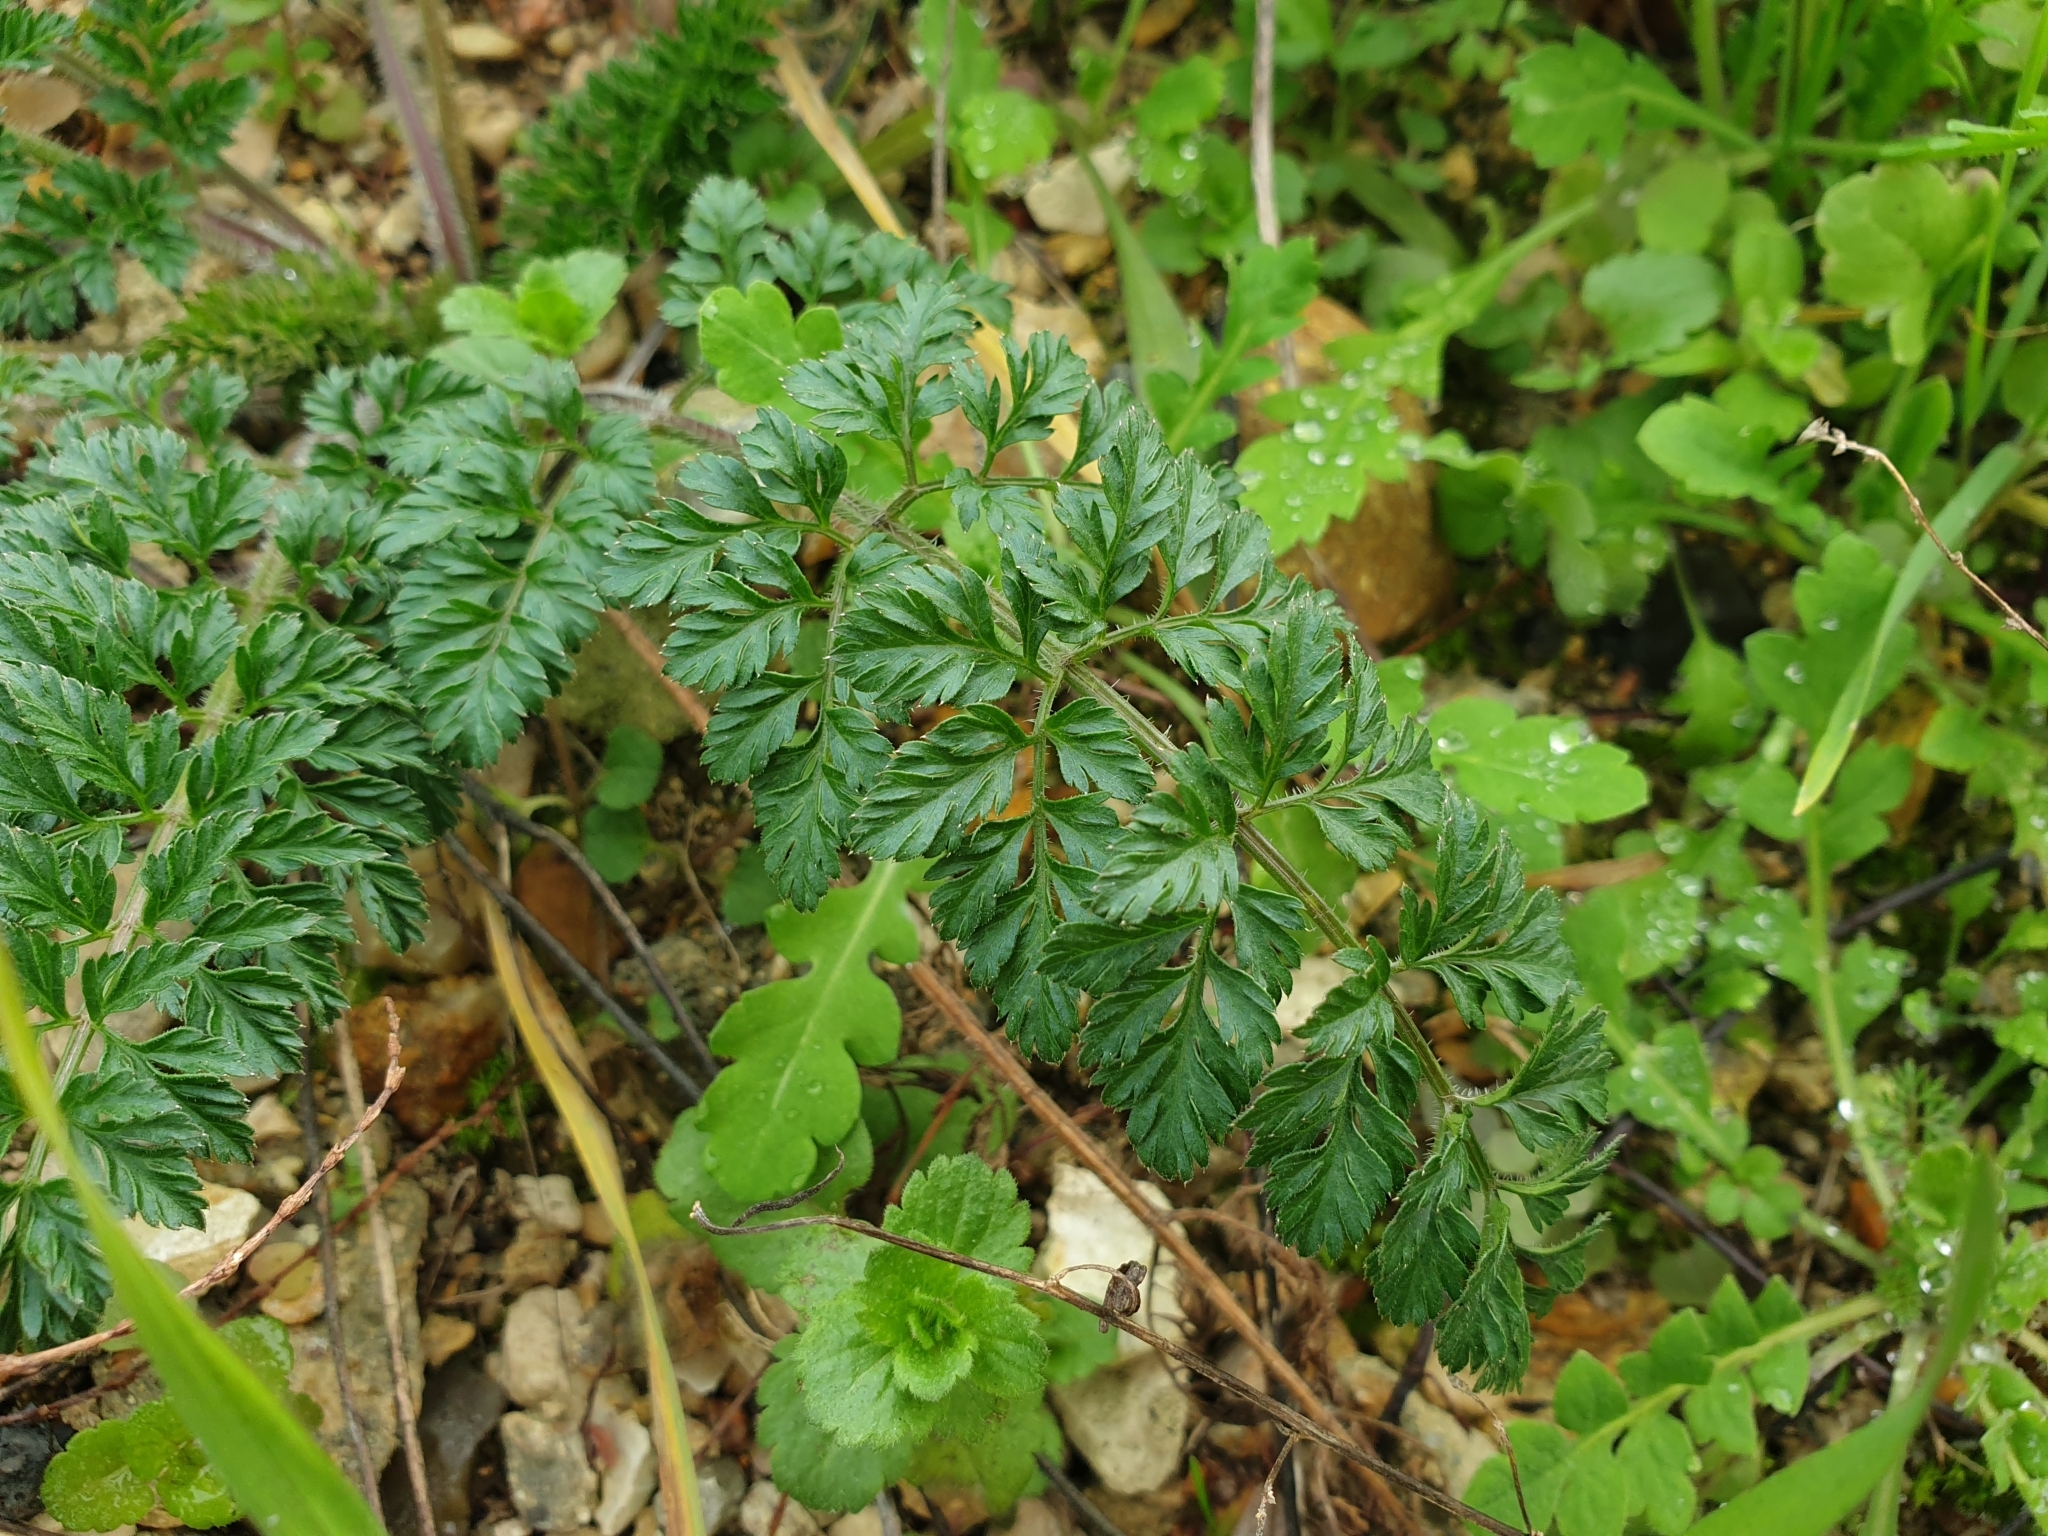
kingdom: Plantae
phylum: Tracheophyta
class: Magnoliopsida
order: Apiales
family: Apiaceae
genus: Daucus
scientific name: Daucus carota
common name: Wild carrot
